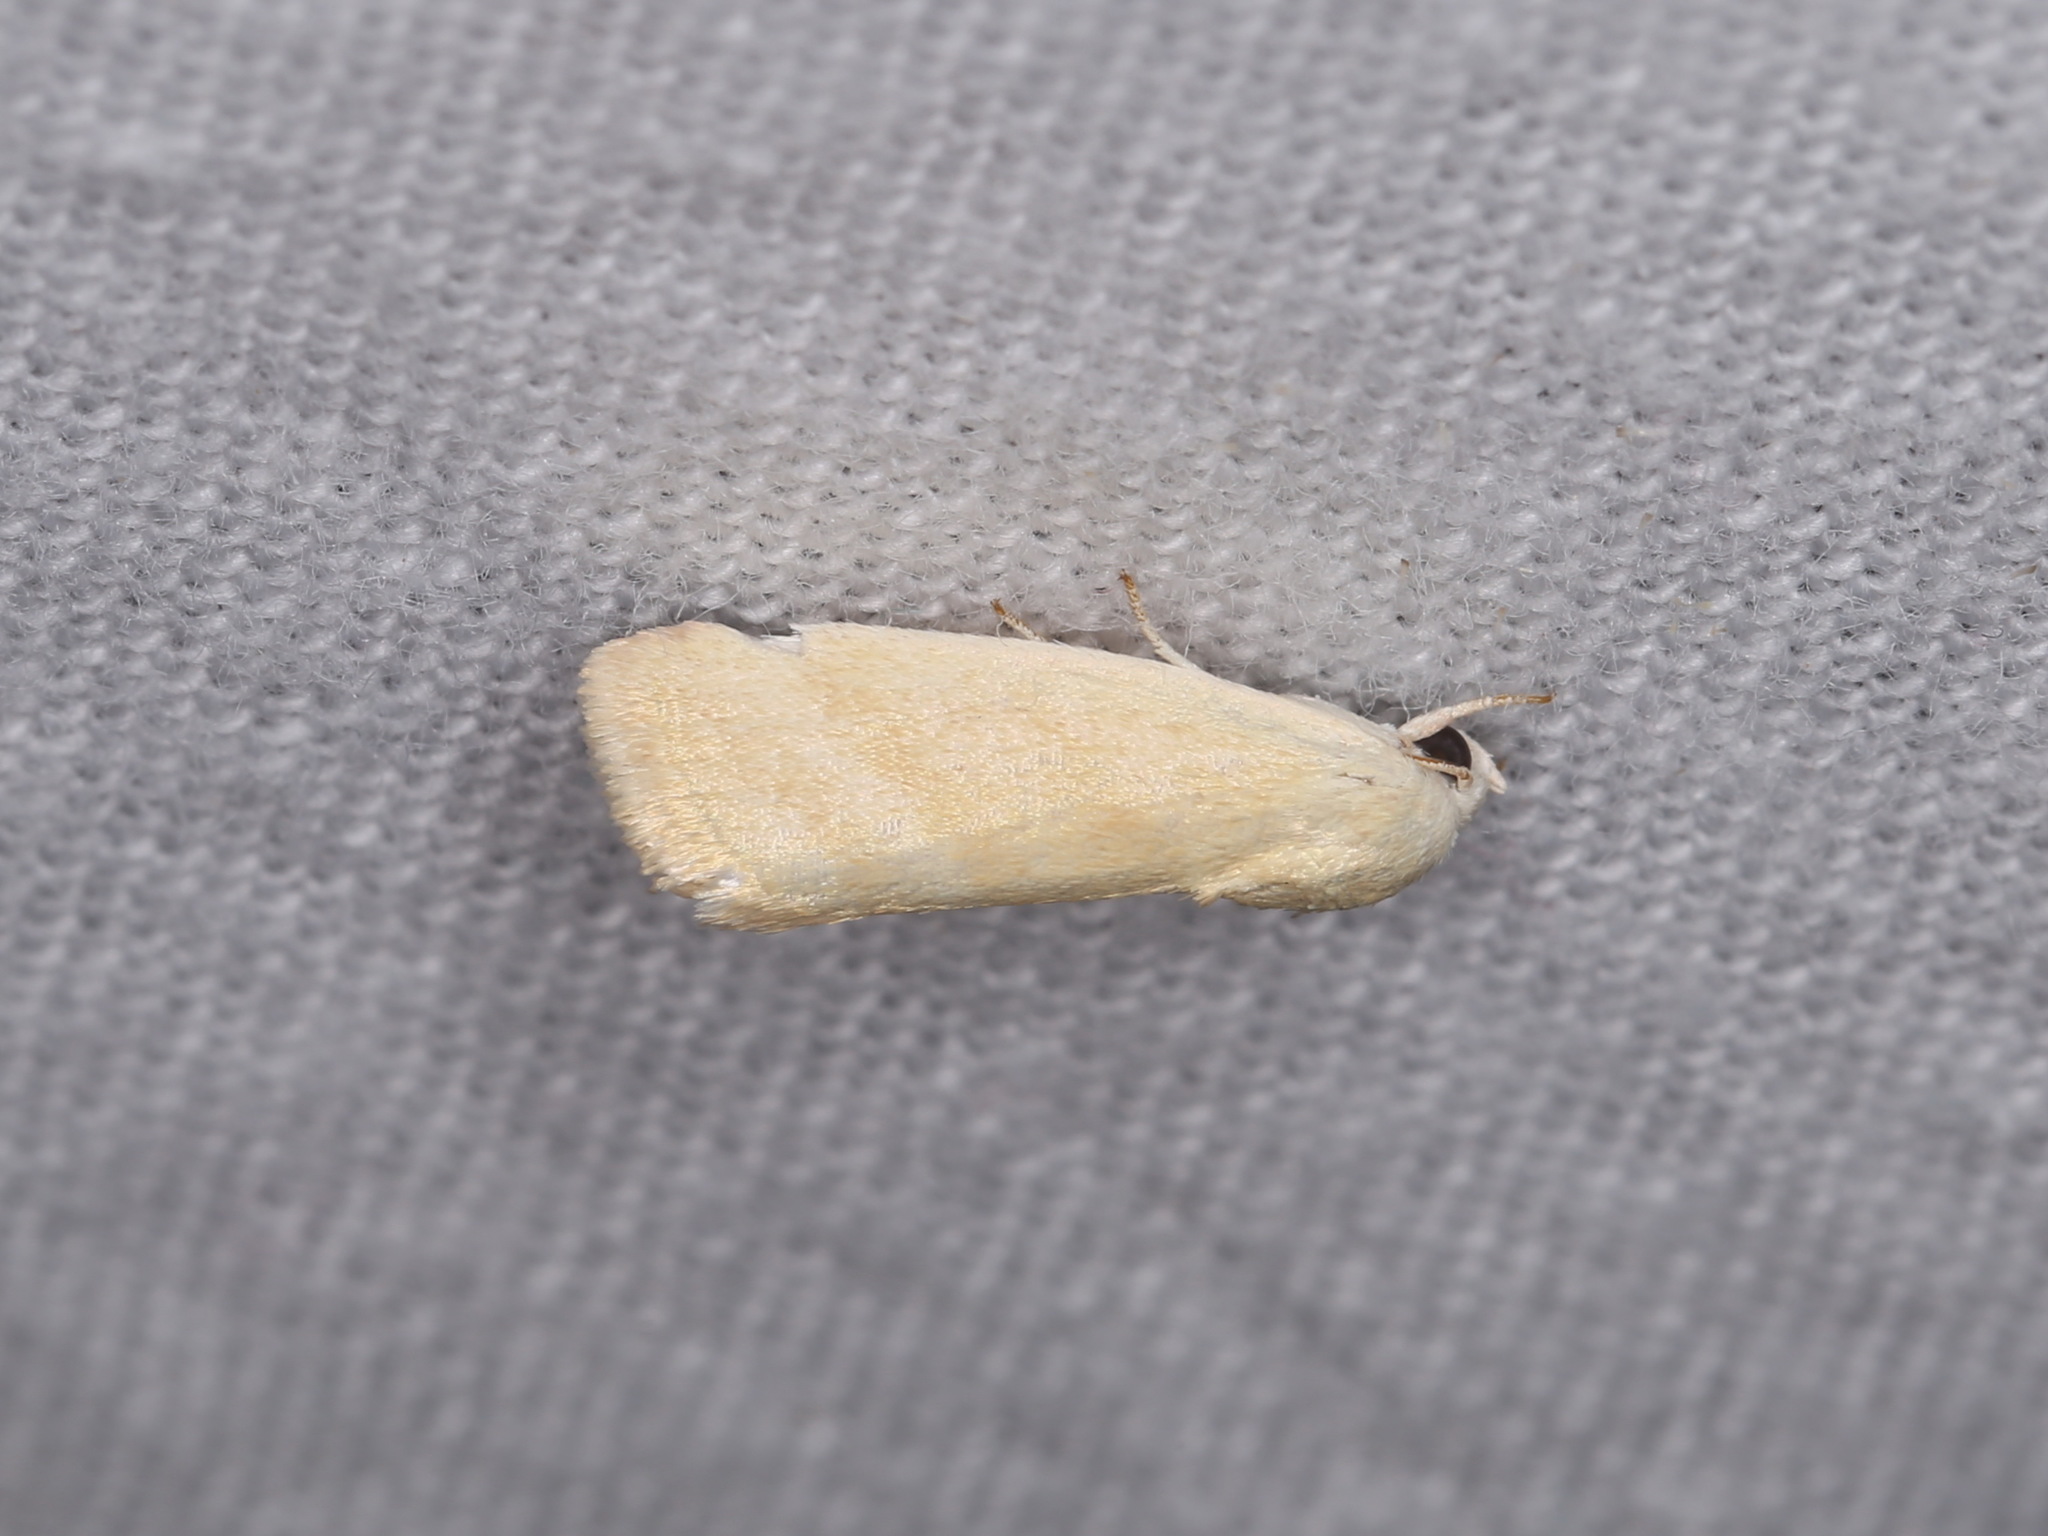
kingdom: Animalia
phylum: Arthropoda
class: Insecta
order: Lepidoptera
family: Nolidae
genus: Earias
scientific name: Earias paralella
